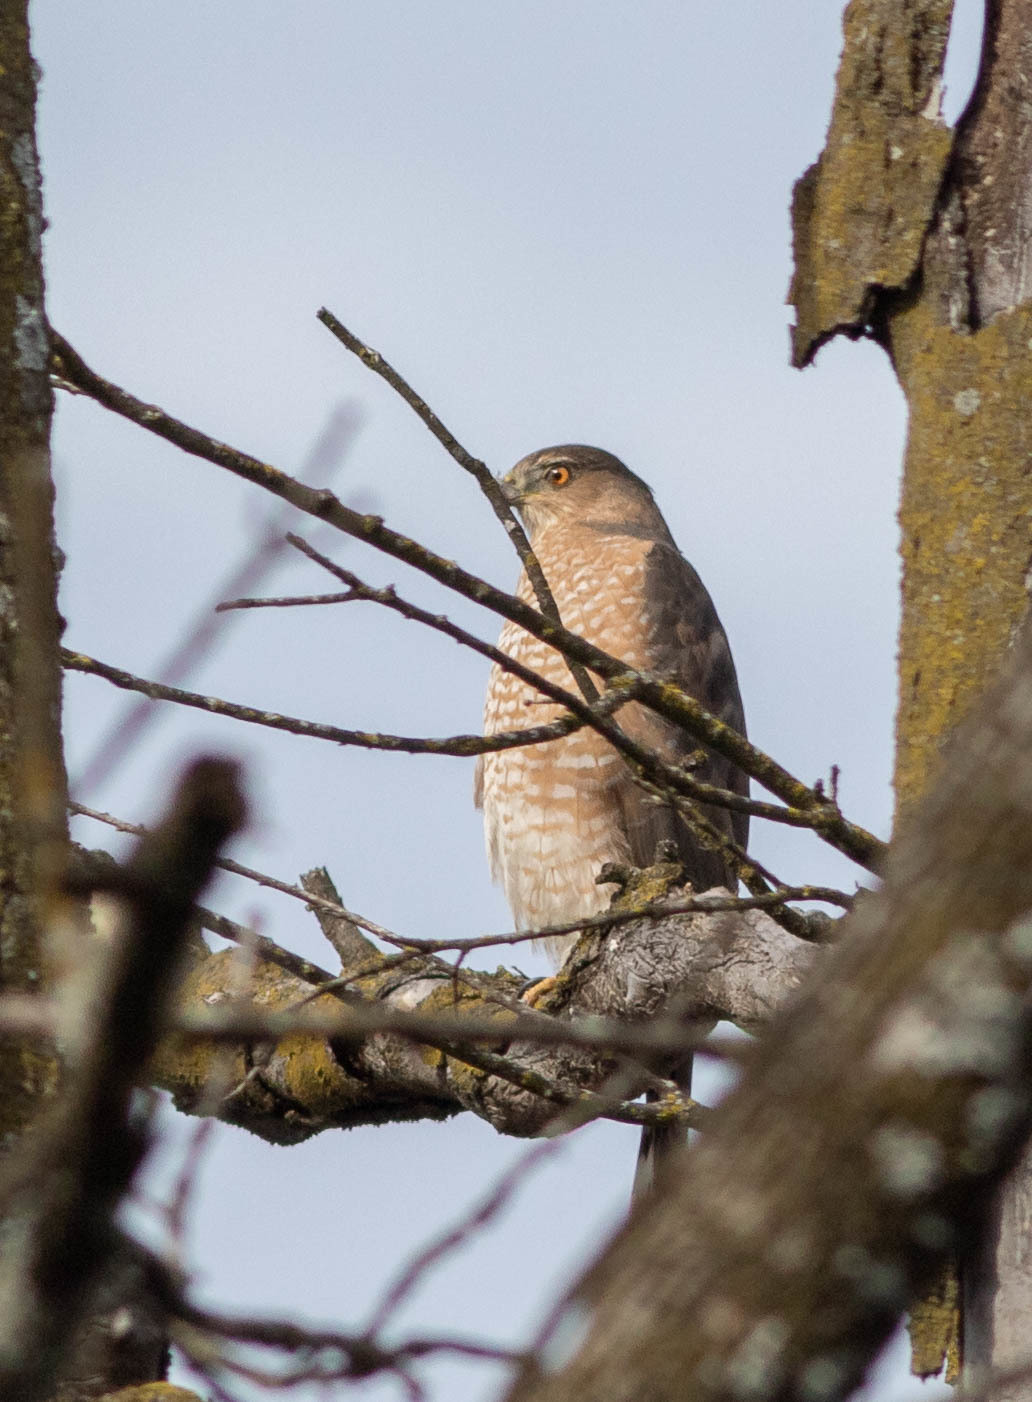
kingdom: Animalia
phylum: Chordata
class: Aves
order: Accipitriformes
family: Accipitridae
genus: Accipiter
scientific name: Accipiter cooperii
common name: Cooper's hawk
